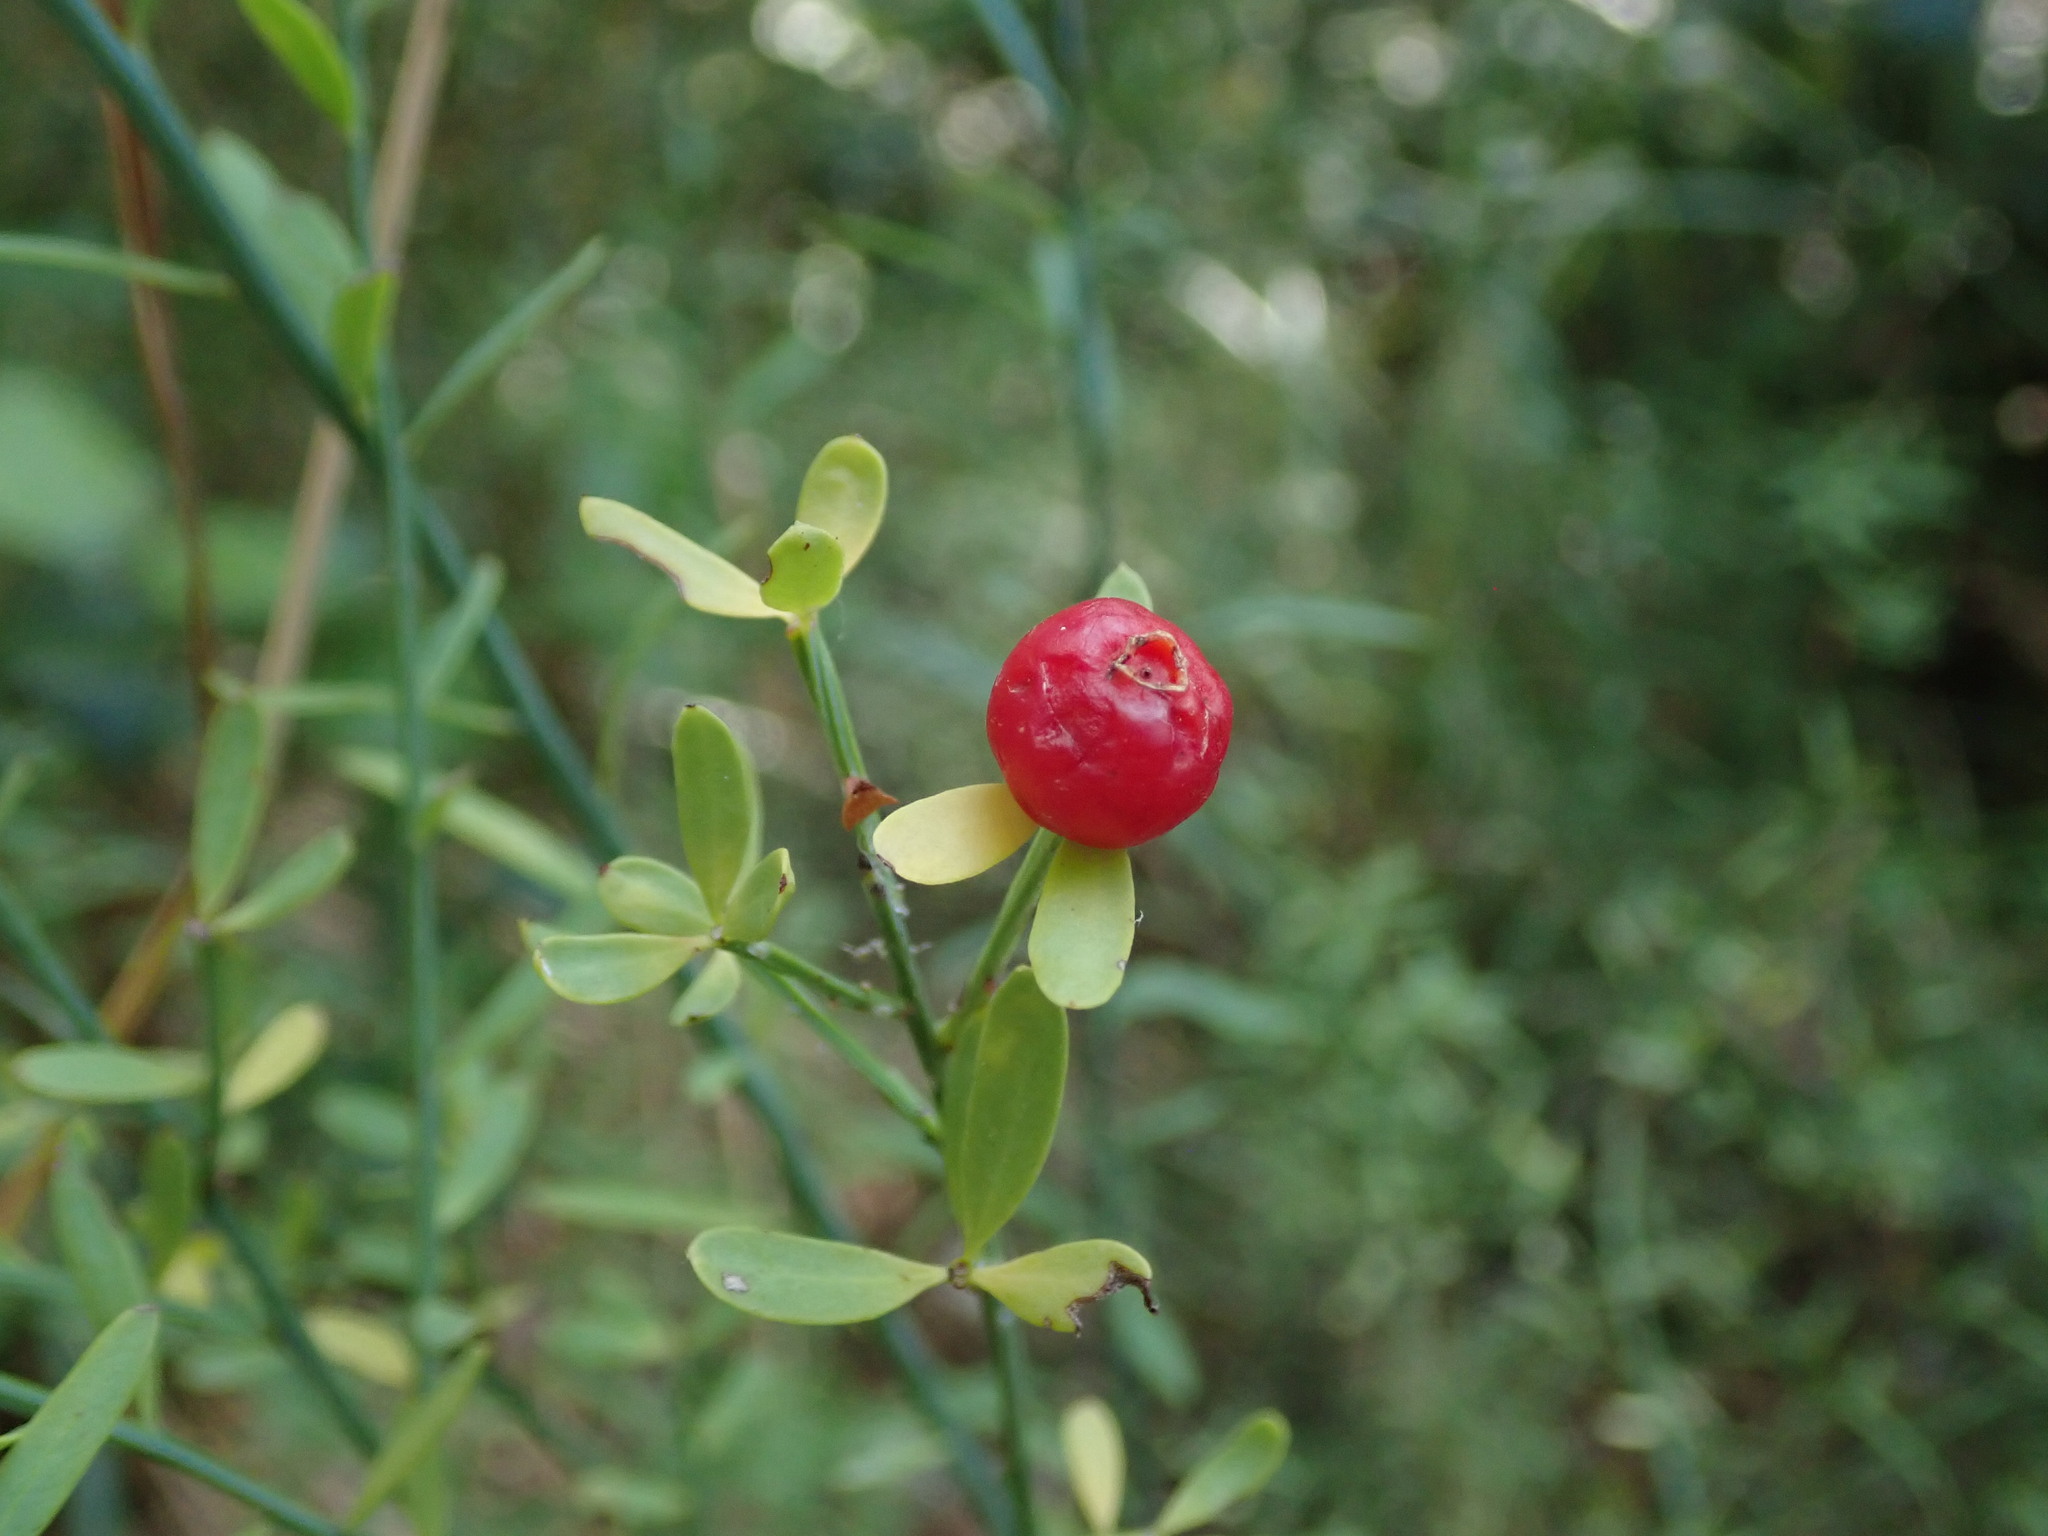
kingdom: Plantae
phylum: Tracheophyta
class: Magnoliopsida
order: Santalales
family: Santalaceae
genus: Osyris
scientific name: Osyris alba
